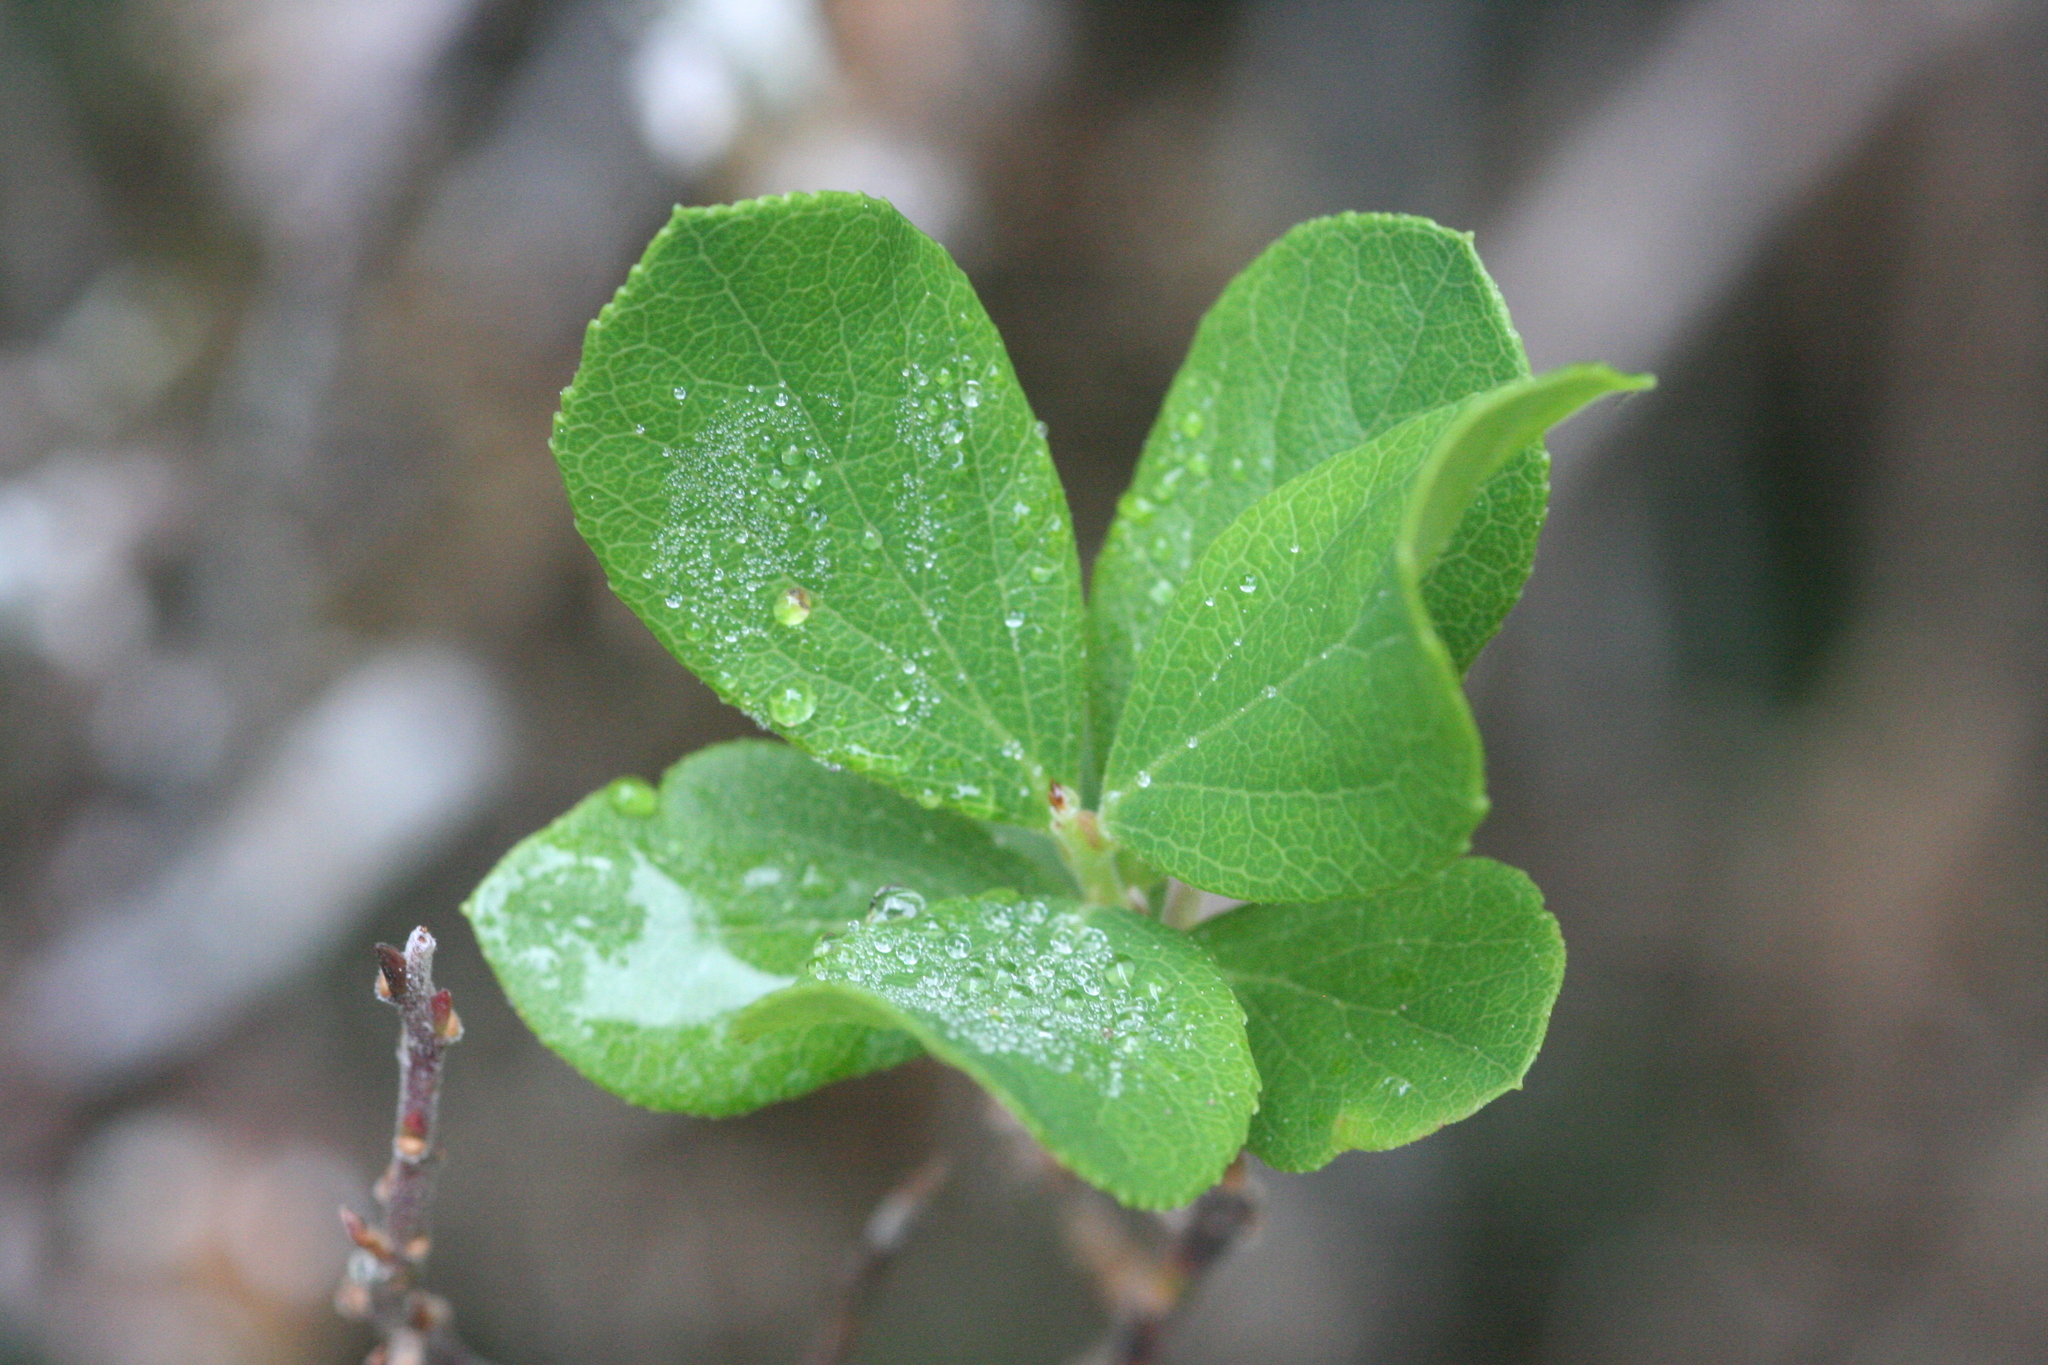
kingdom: Plantae
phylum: Tracheophyta
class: Magnoliopsida
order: Ericales
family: Ericaceae
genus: Vaccinium
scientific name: Vaccinium reticulatum
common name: Ohelo
